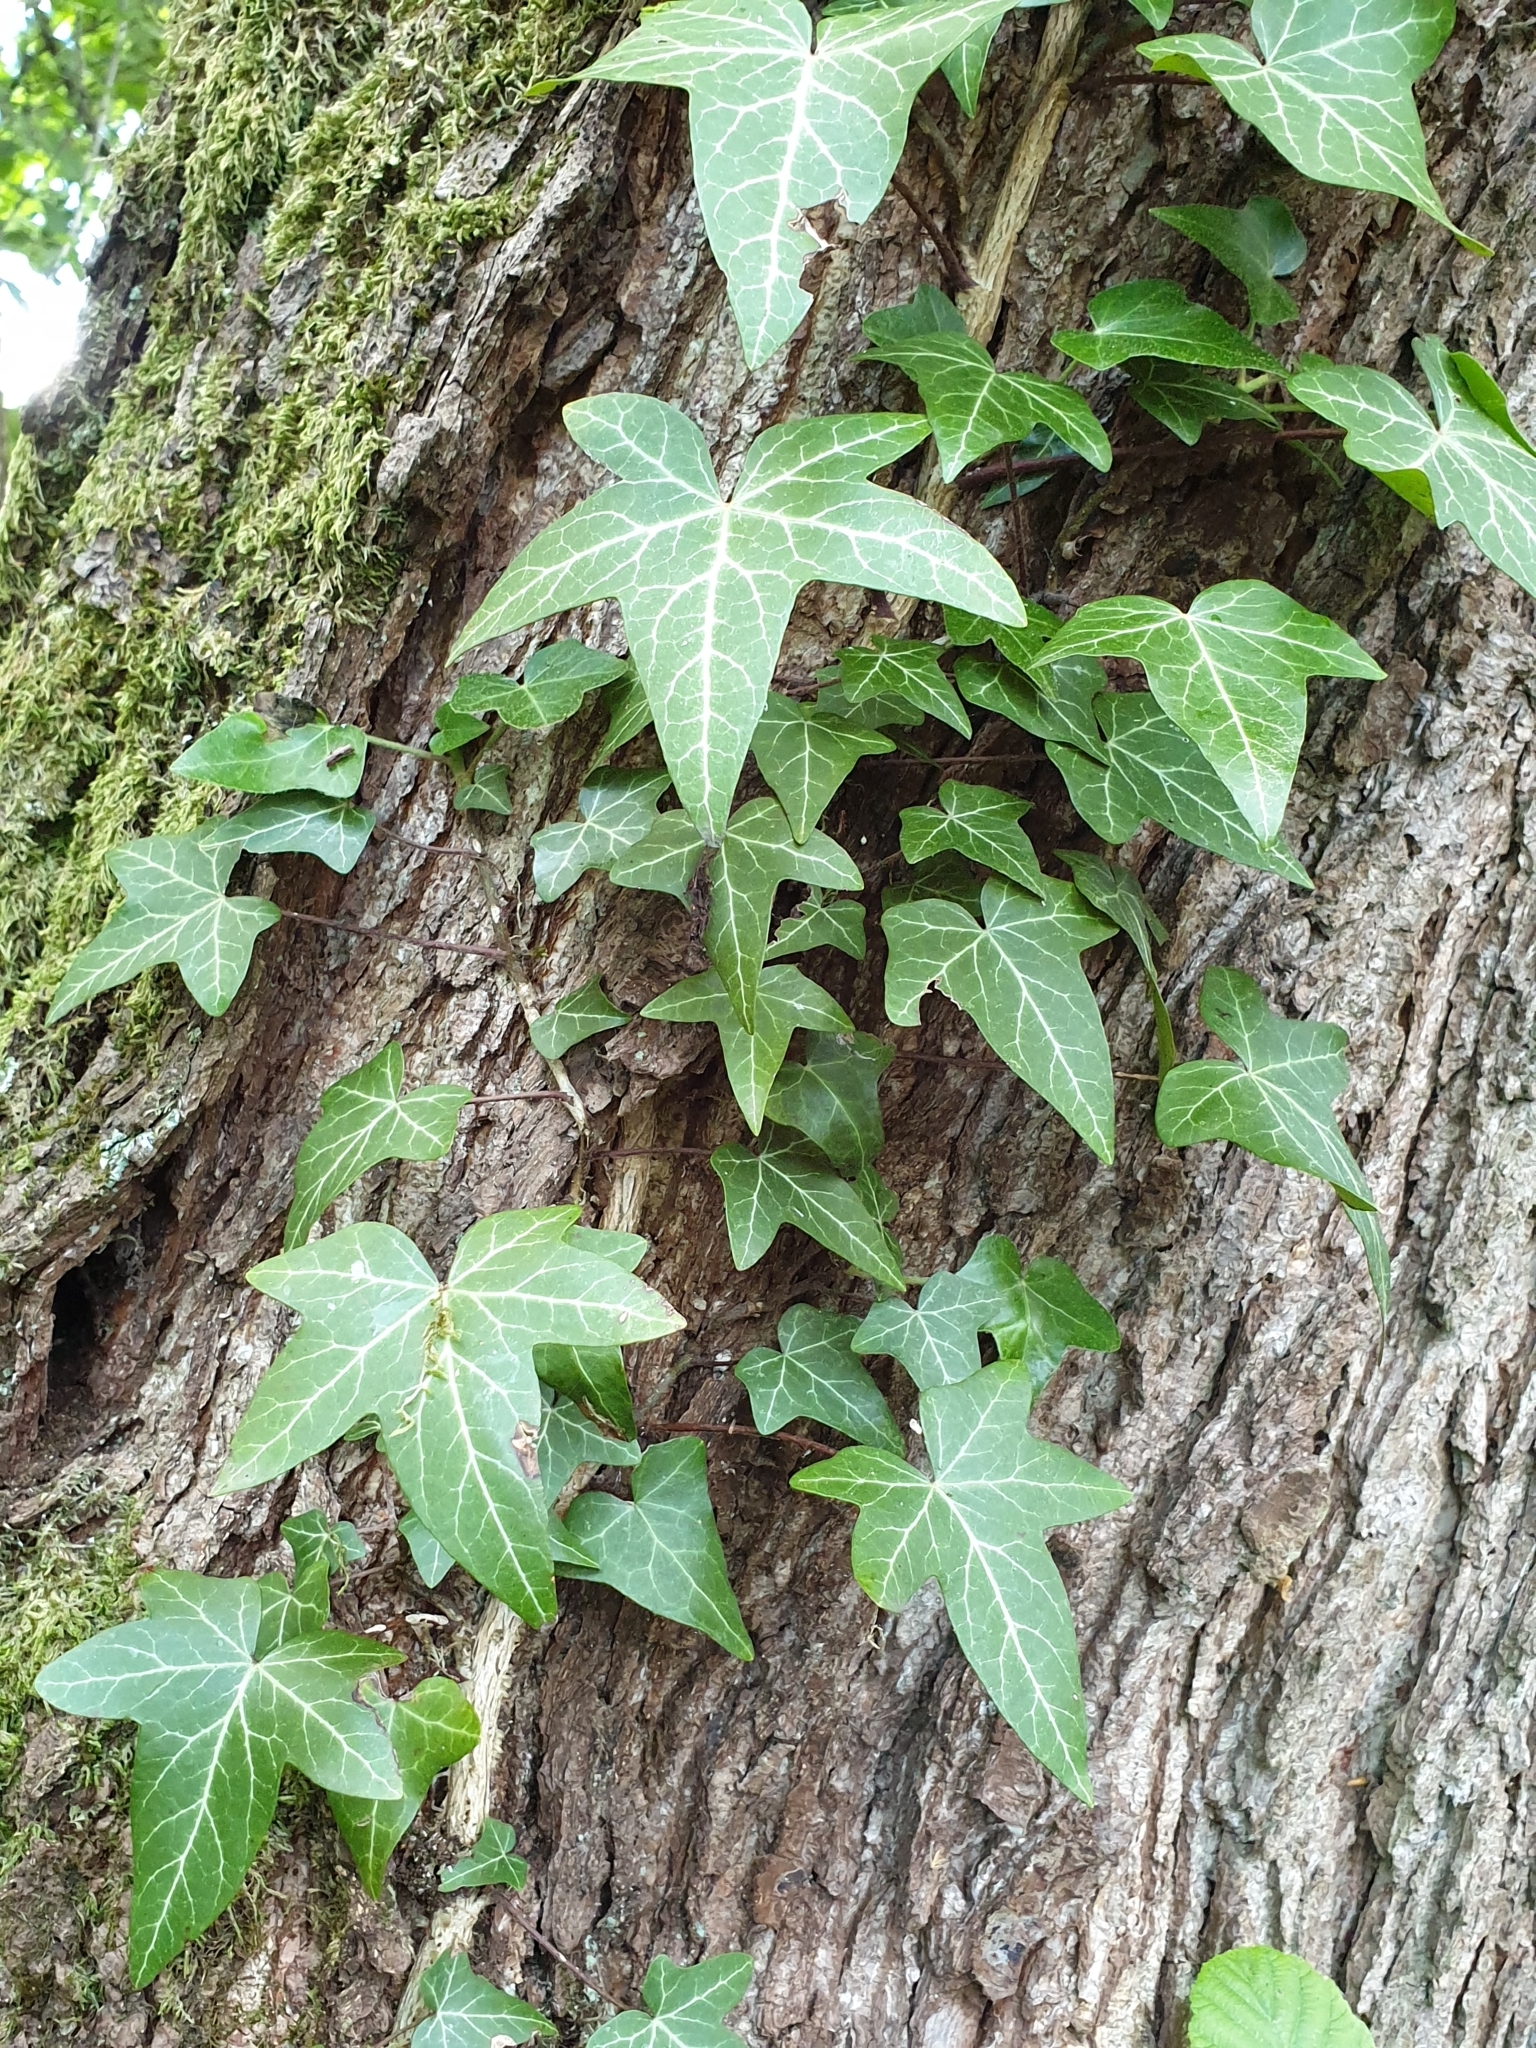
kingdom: Plantae
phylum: Tracheophyta
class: Magnoliopsida
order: Apiales
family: Araliaceae
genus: Hedera
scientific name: Hedera helix
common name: Ivy
